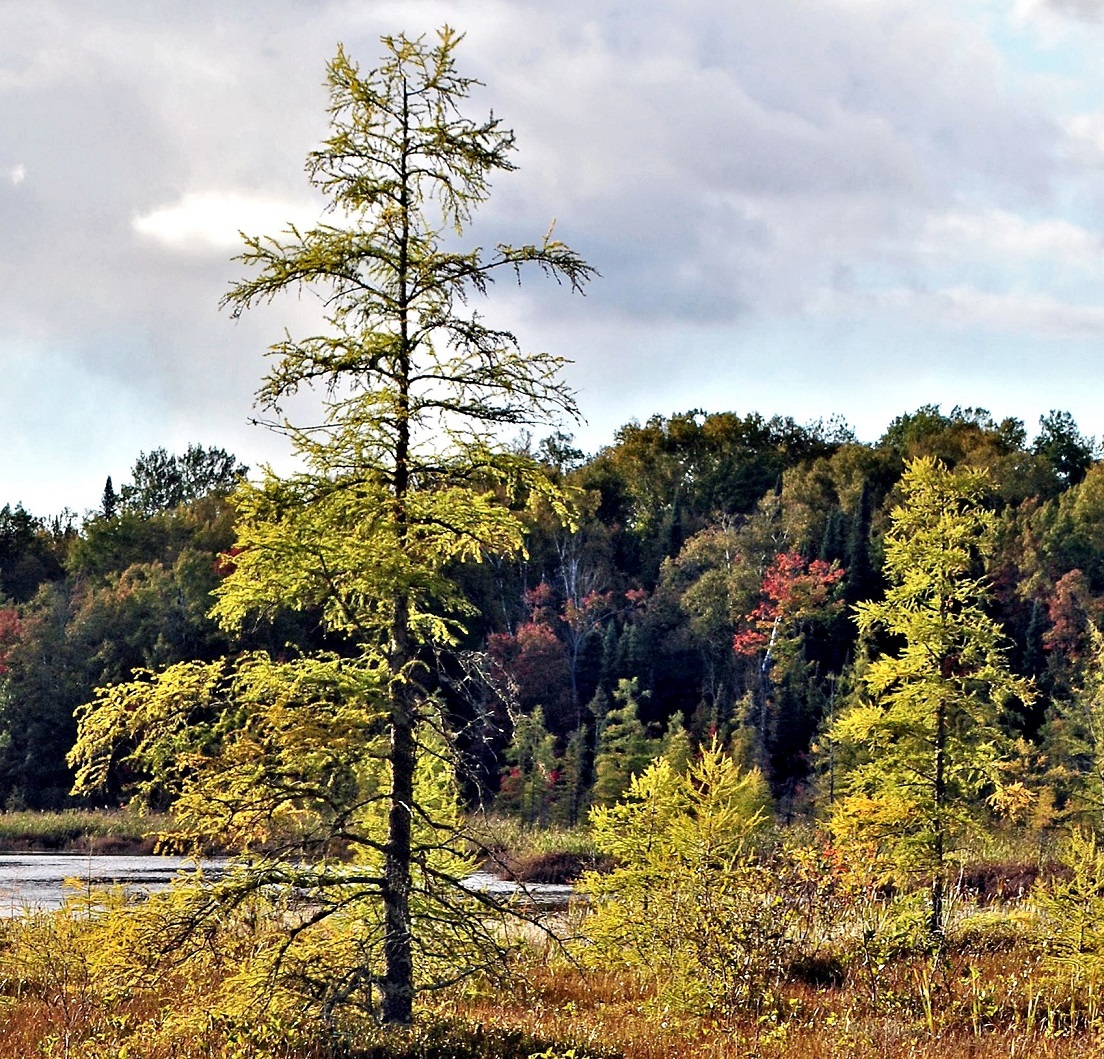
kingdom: Plantae
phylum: Tracheophyta
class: Pinopsida
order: Pinales
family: Pinaceae
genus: Larix
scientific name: Larix laricina
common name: American larch
